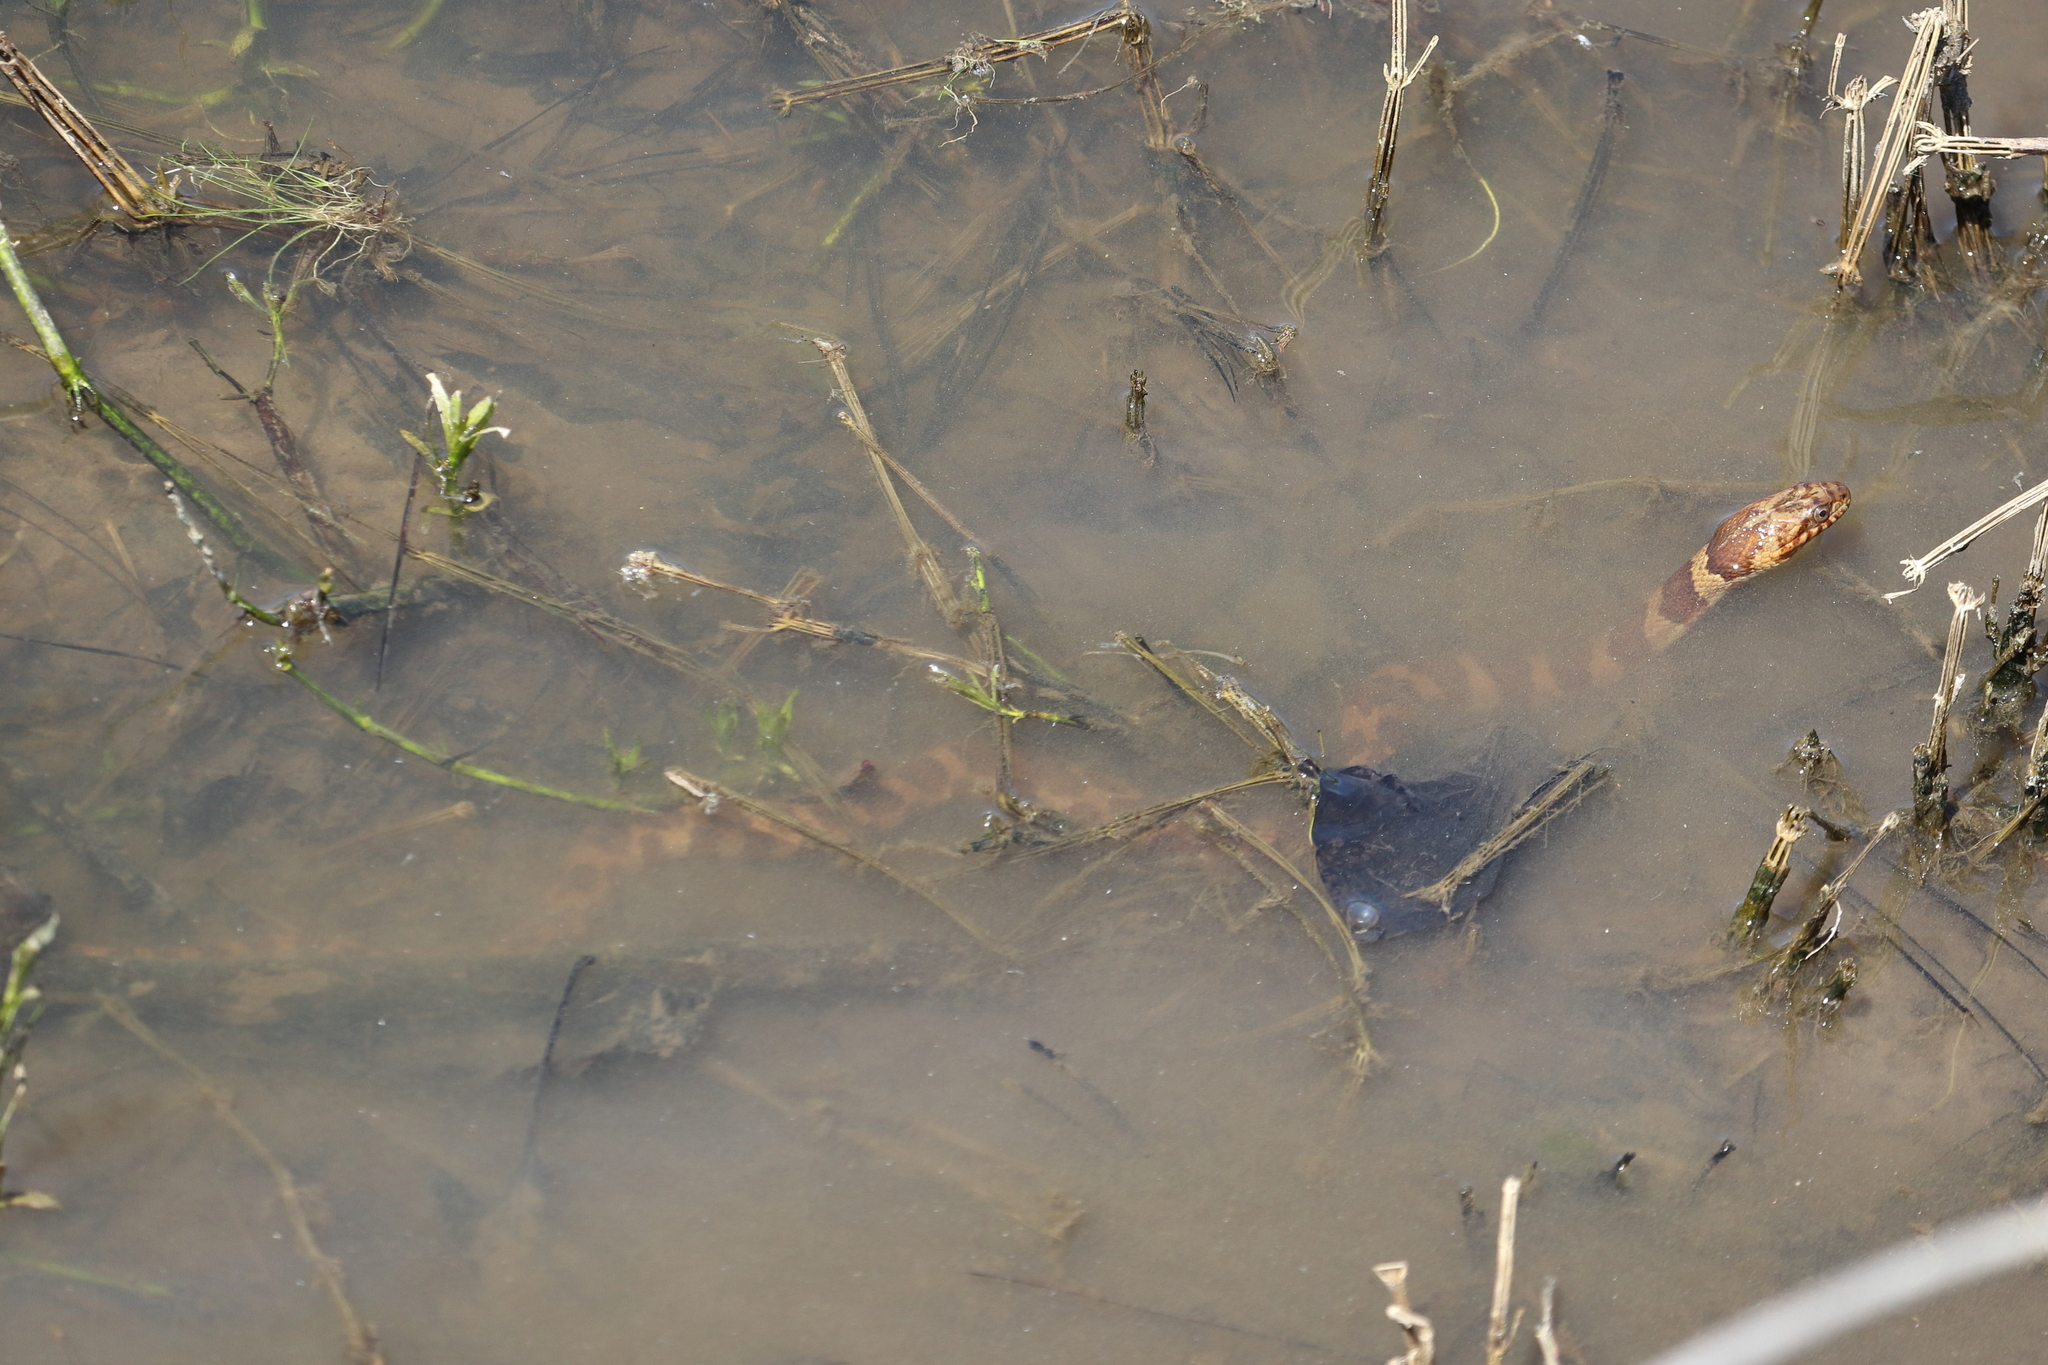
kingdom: Animalia
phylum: Chordata
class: Squamata
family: Colubridae
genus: Nerodia
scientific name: Nerodia sipedon
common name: Northern water snake
